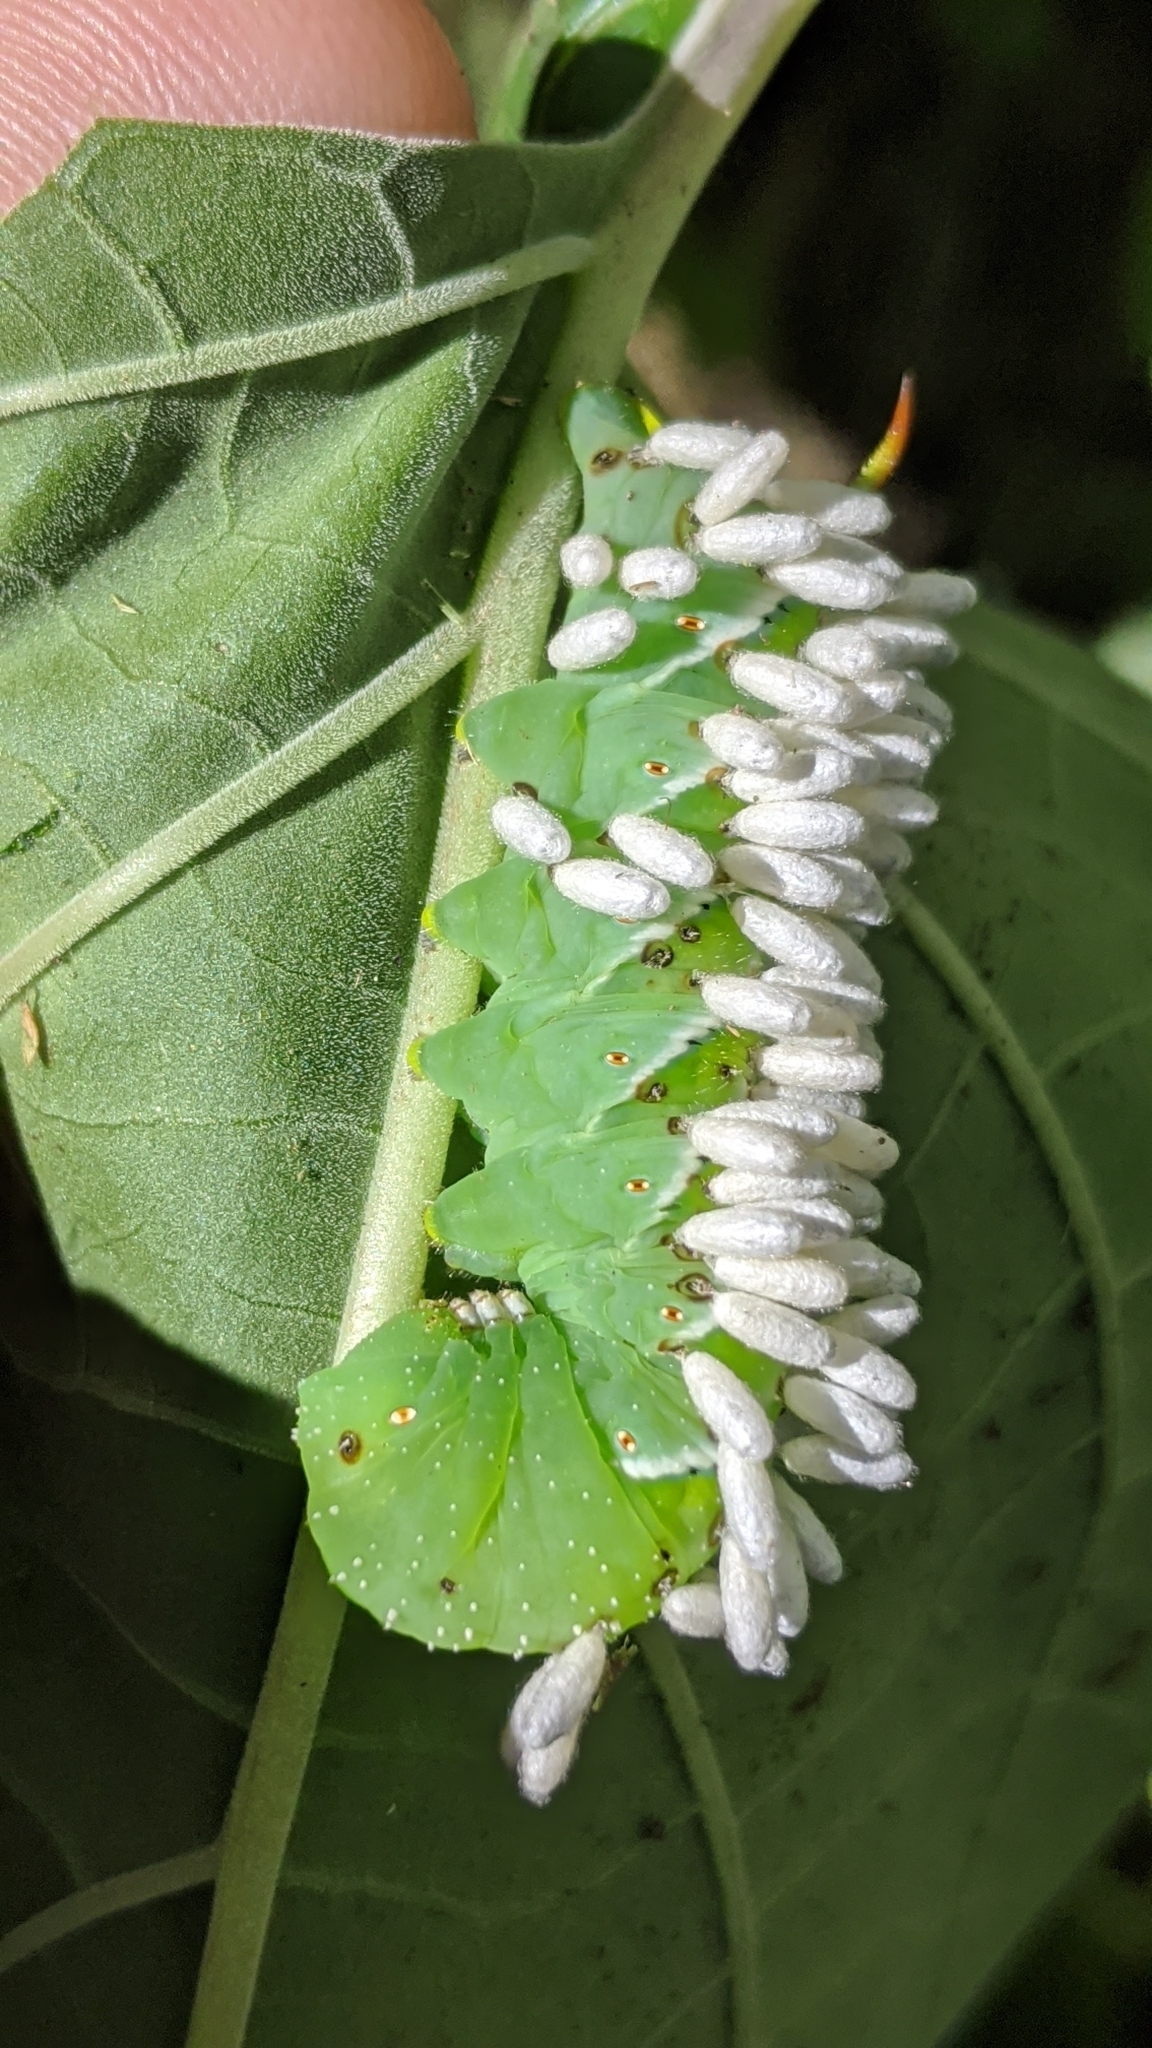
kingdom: Animalia
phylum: Arthropoda
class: Insecta
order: Hymenoptera
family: Braconidae
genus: Cotesia
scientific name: Cotesia congregata
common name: Hornworm parasitoid wasp
